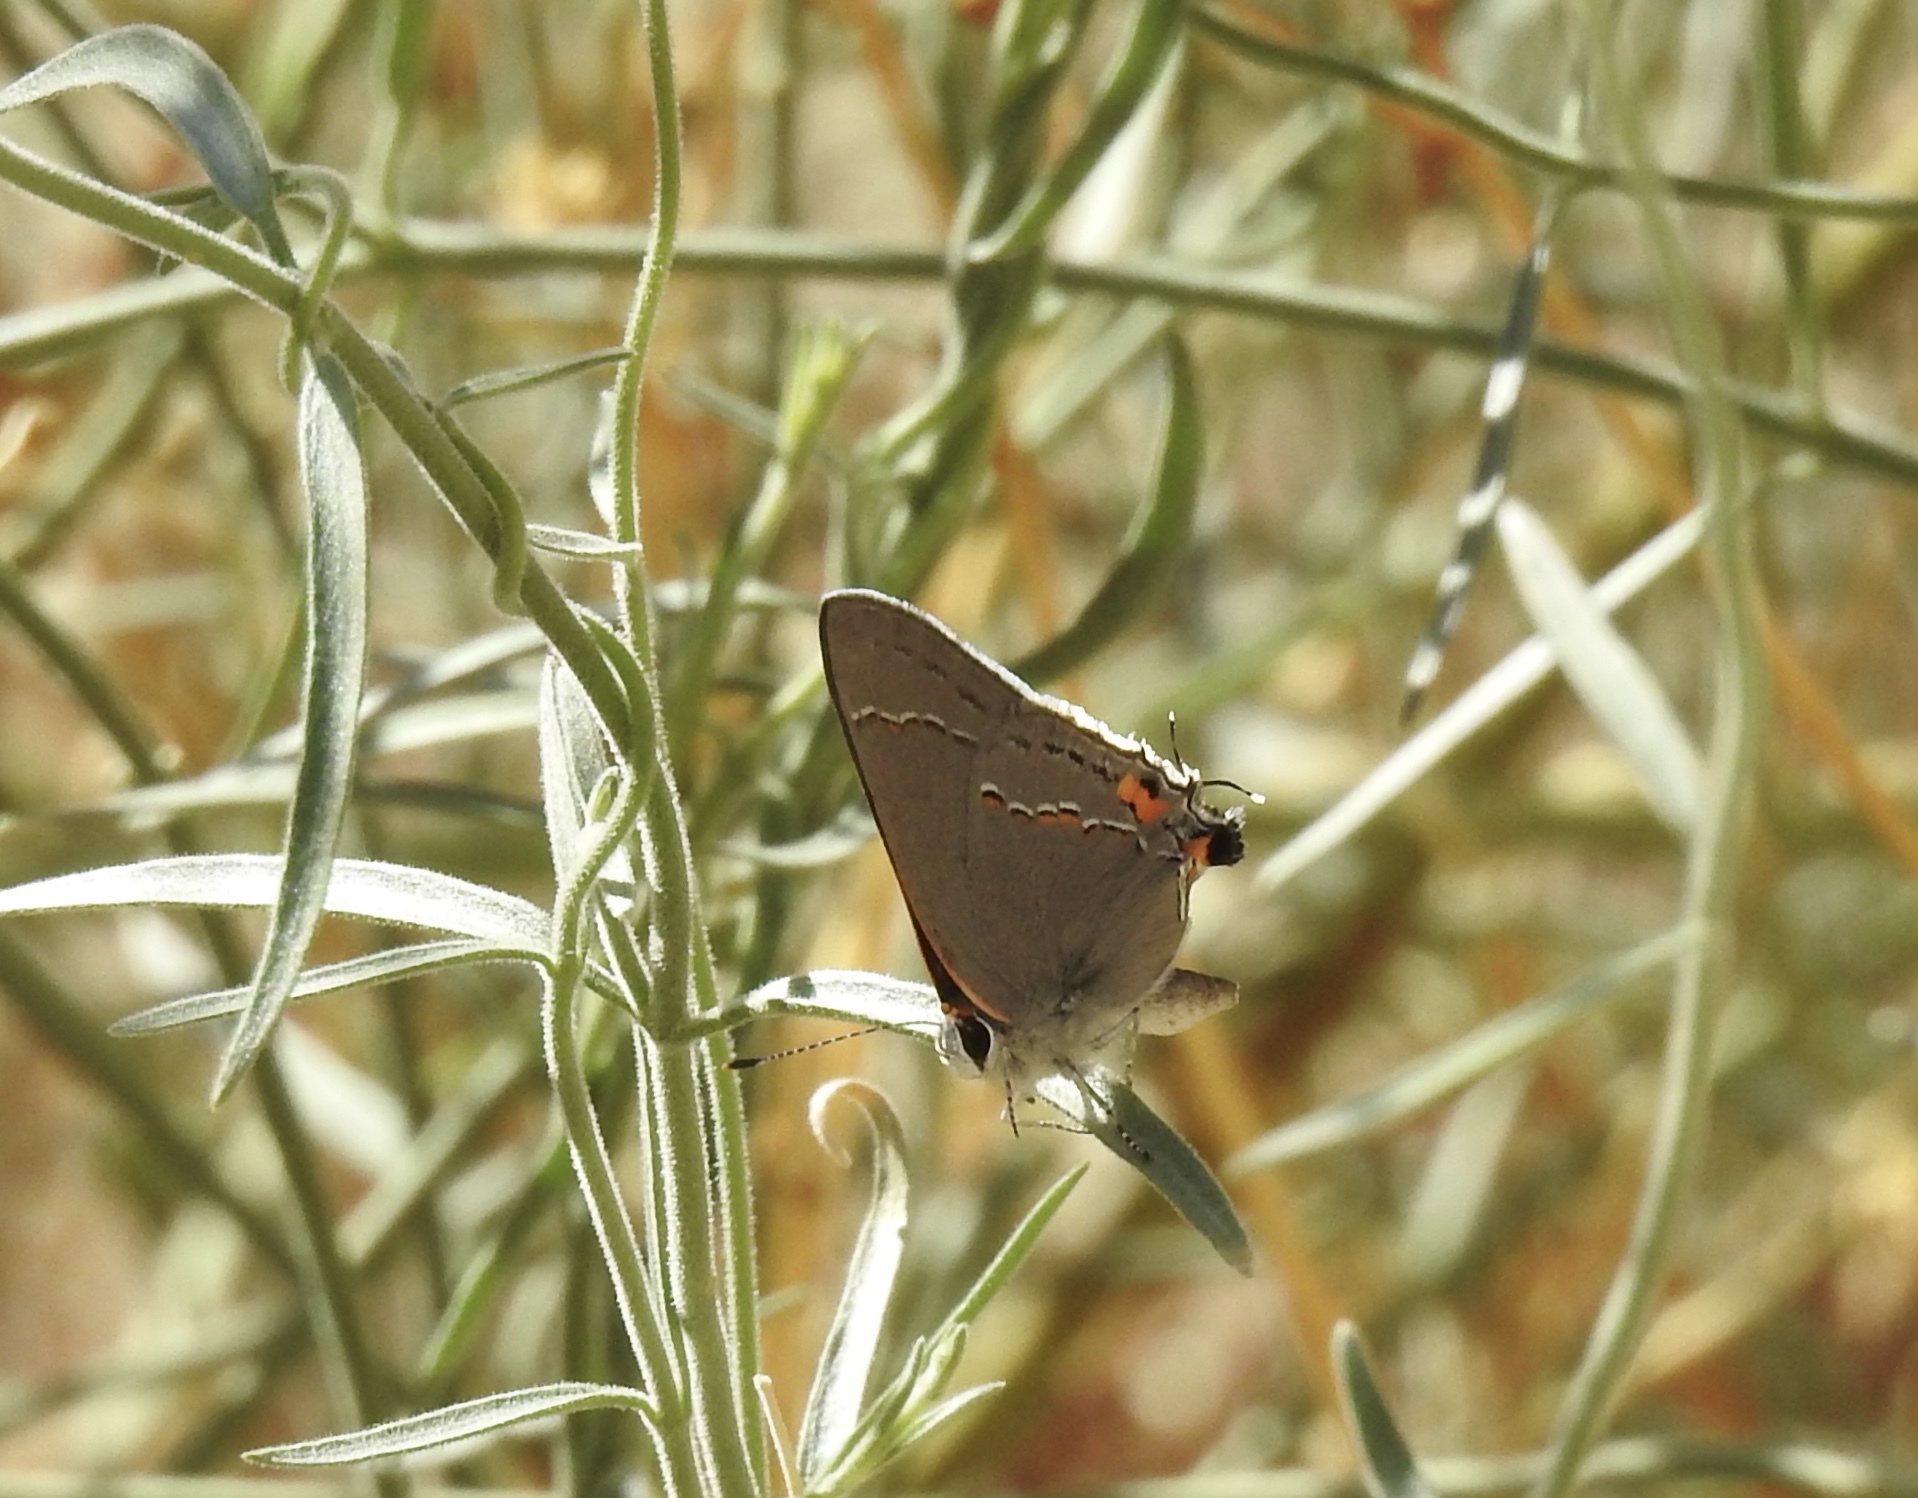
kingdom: Animalia
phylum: Arthropoda
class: Insecta
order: Lepidoptera
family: Lycaenidae
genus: Strymon
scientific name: Strymon melinus
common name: Gray hairstreak
